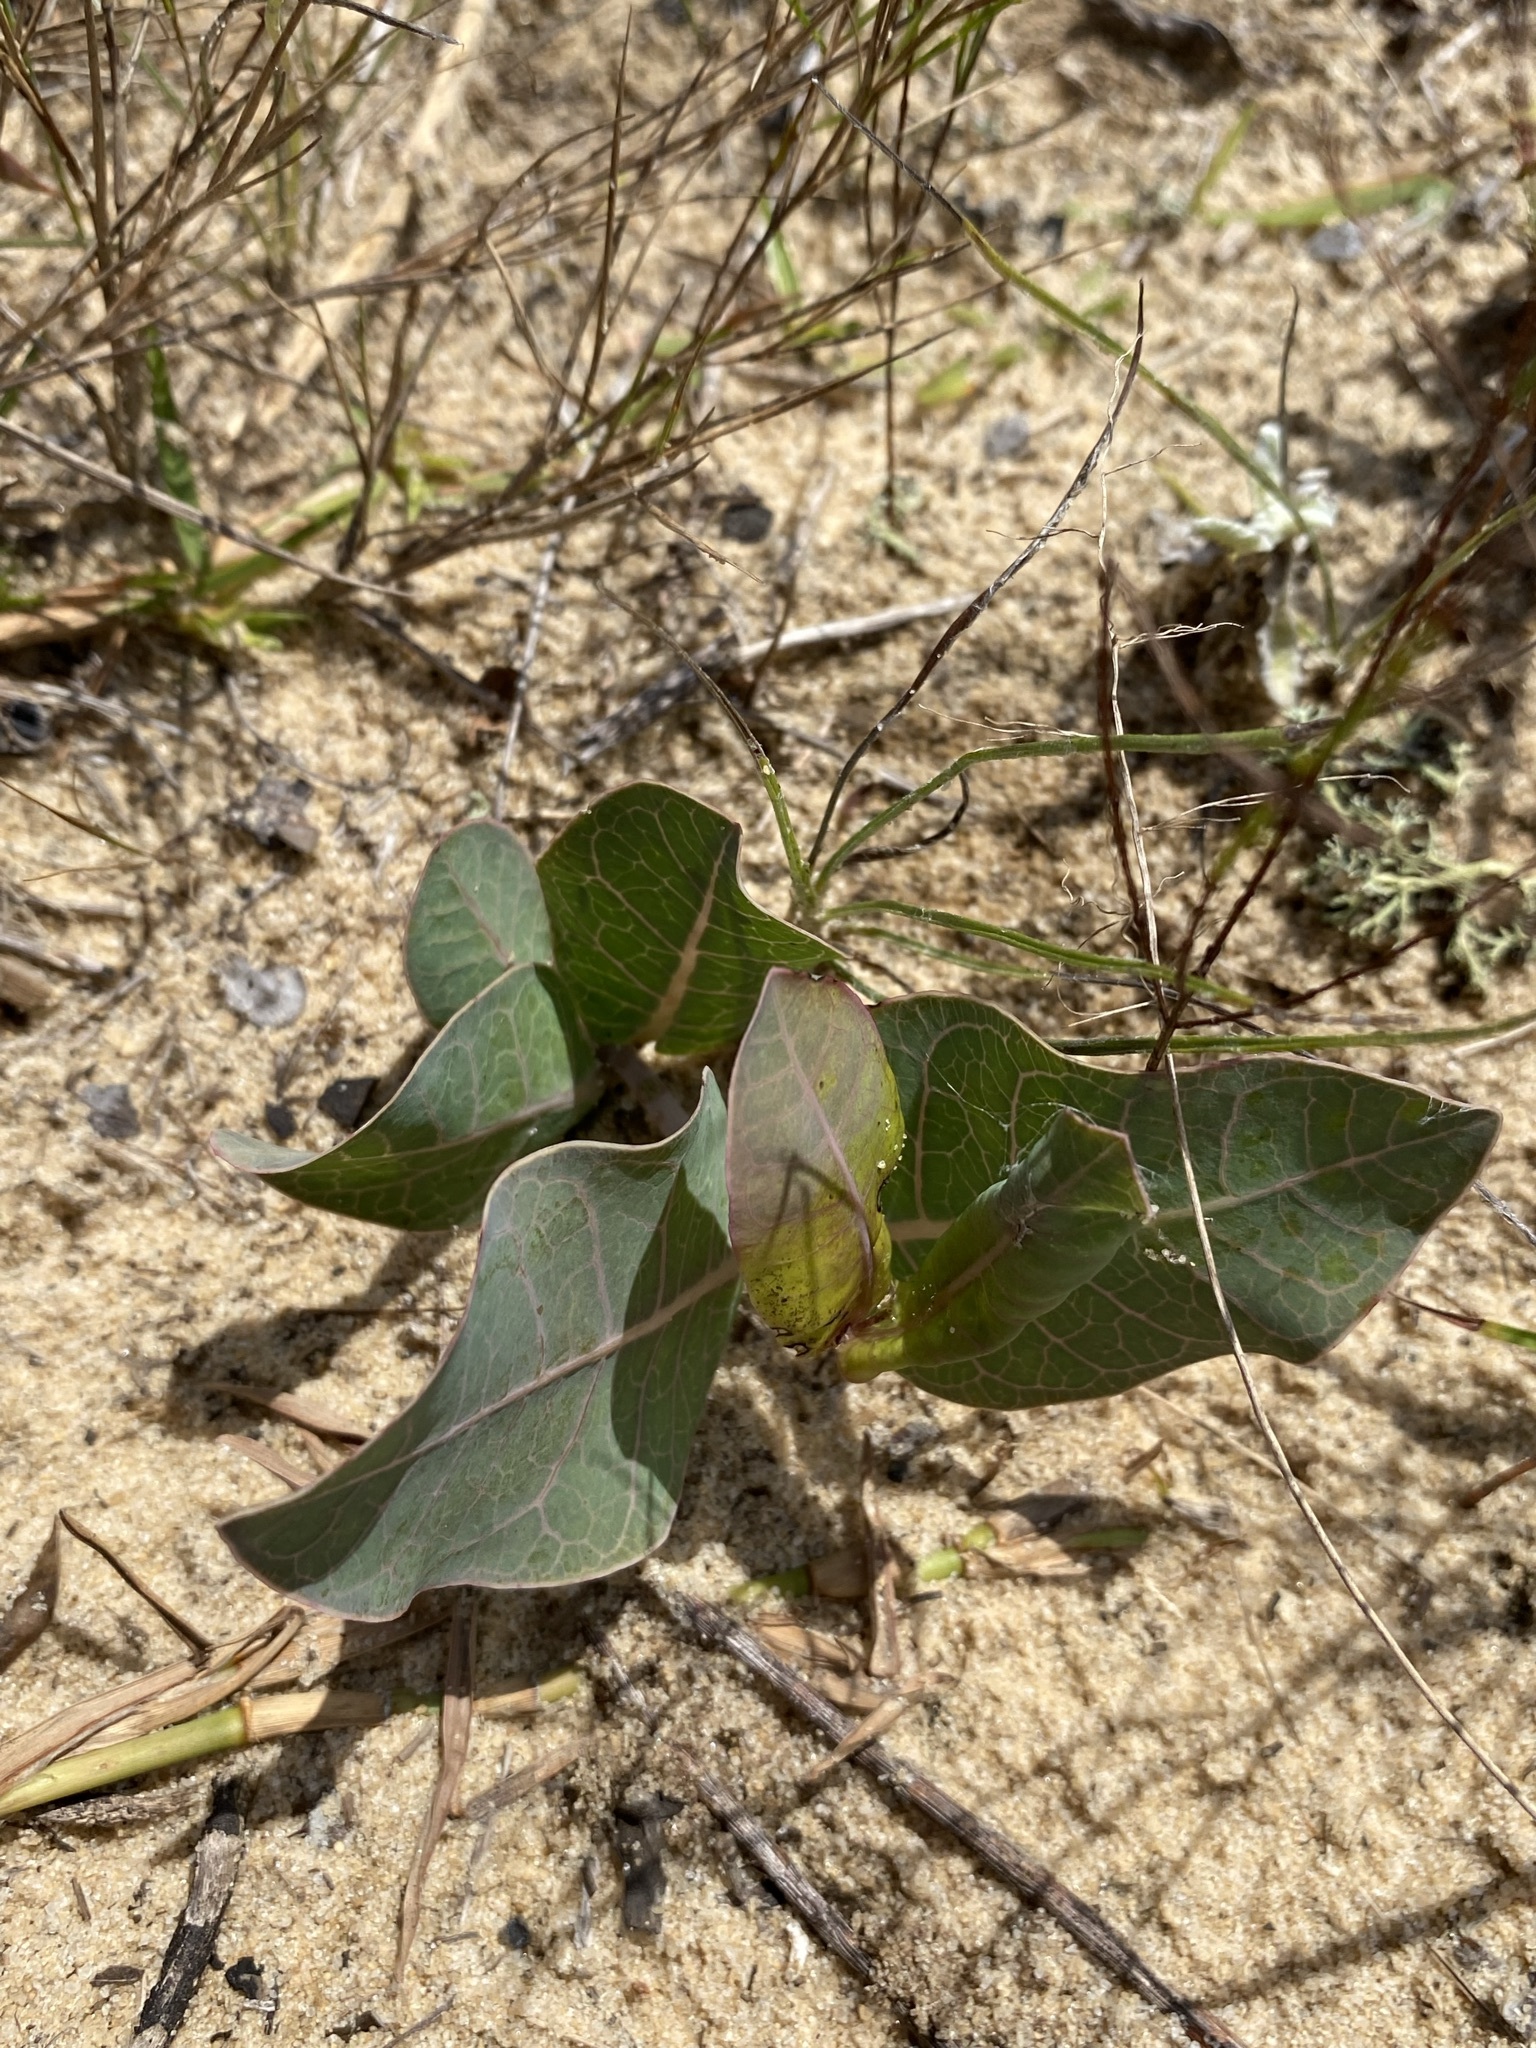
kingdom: Plantae
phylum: Tracheophyta
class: Magnoliopsida
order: Gentianales
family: Apocynaceae
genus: Asclepias
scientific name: Asclepias humistrata
